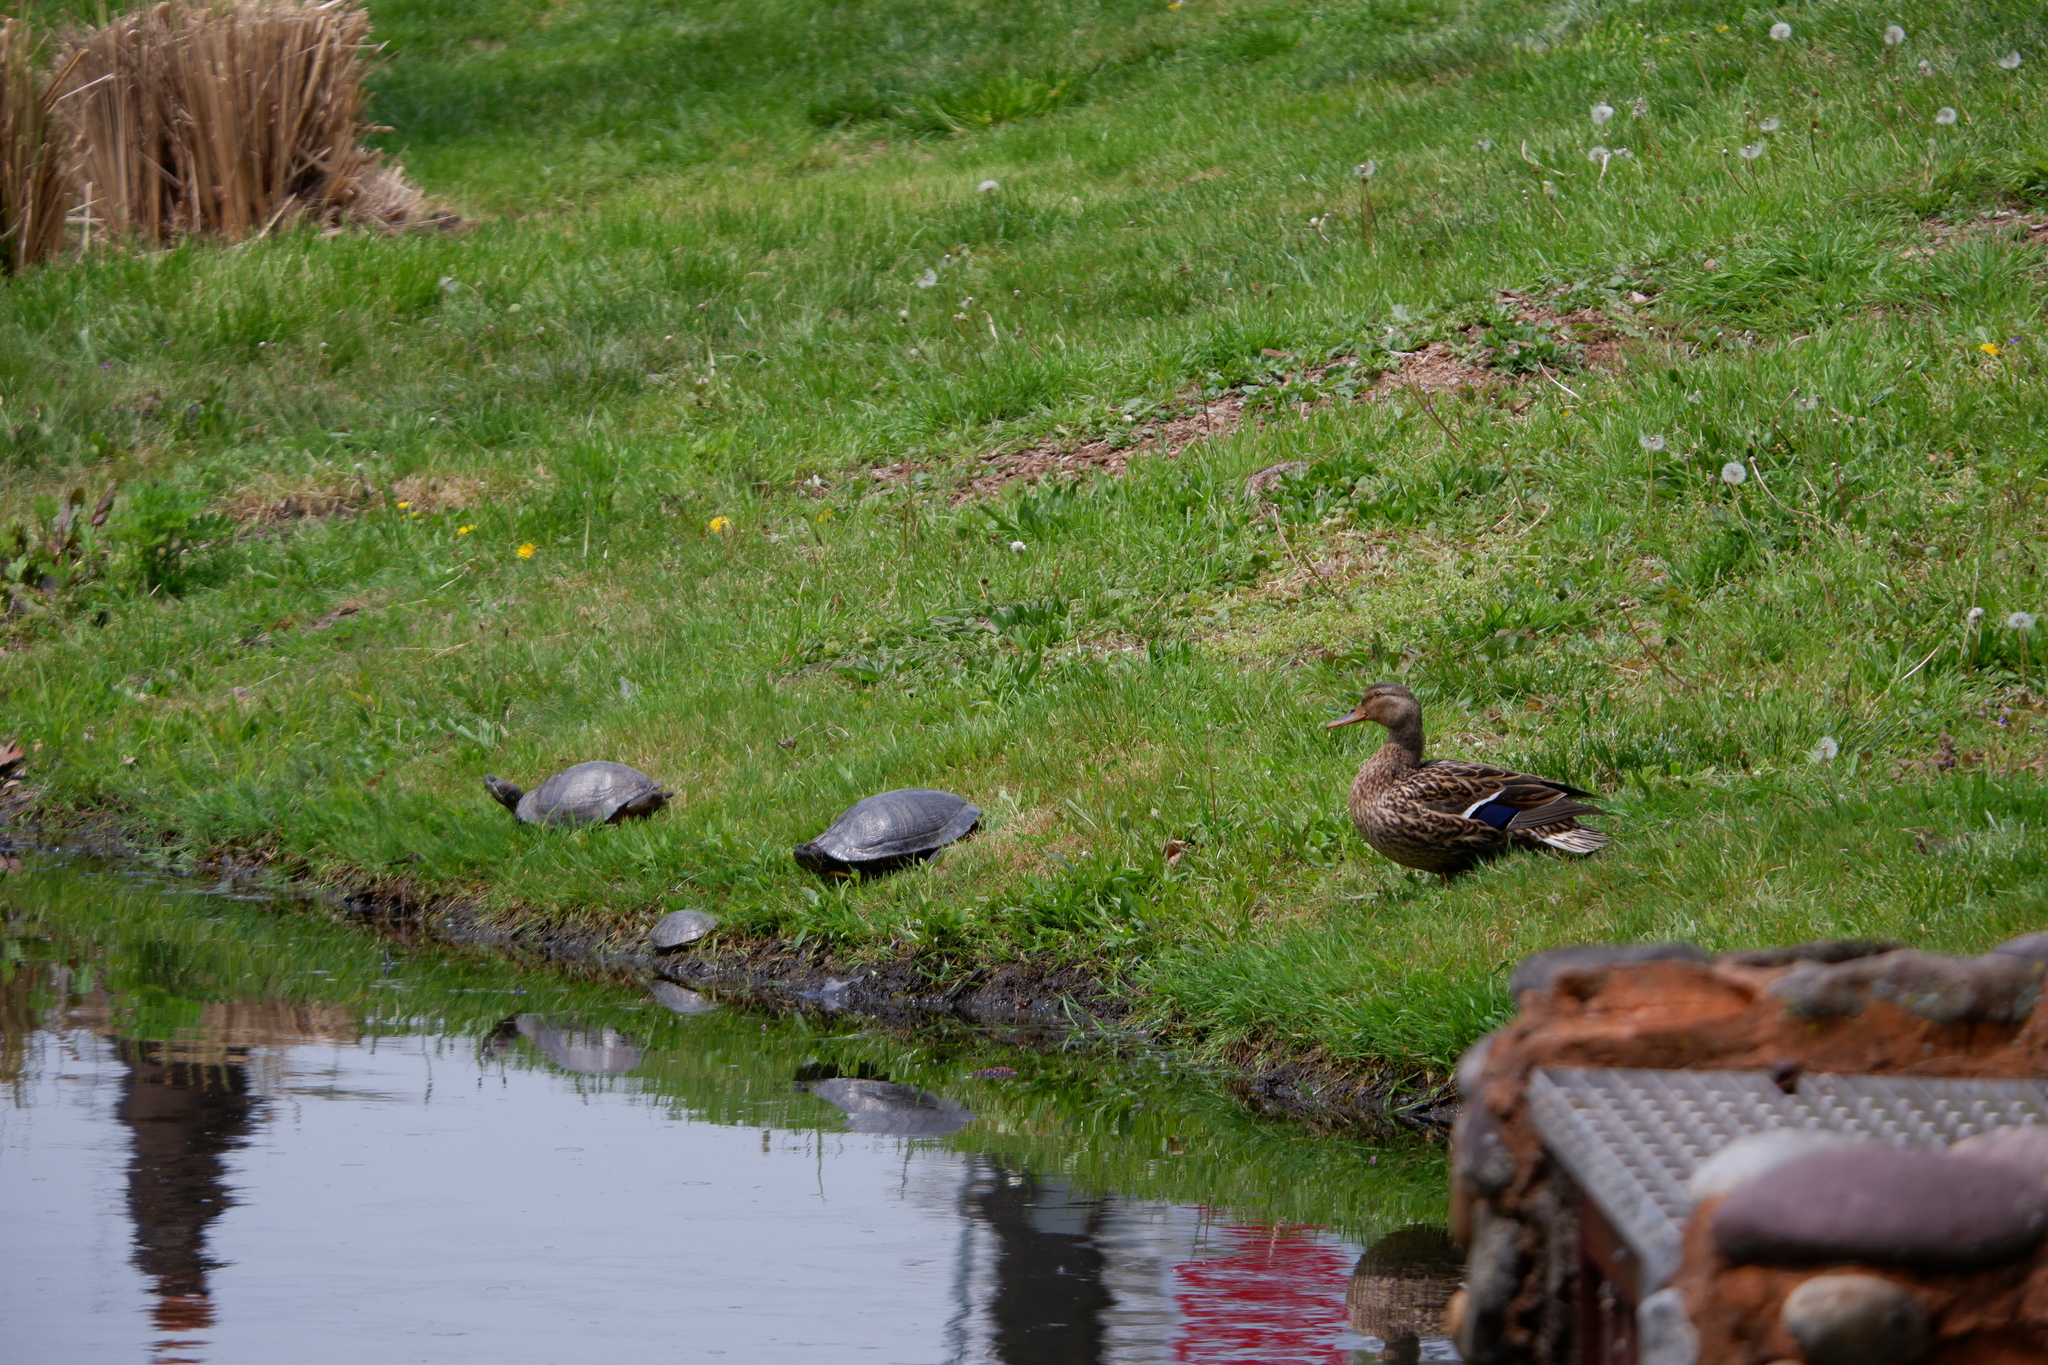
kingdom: Animalia
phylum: Chordata
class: Testudines
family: Emydidae
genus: Trachemys
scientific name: Trachemys scripta
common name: Slider
